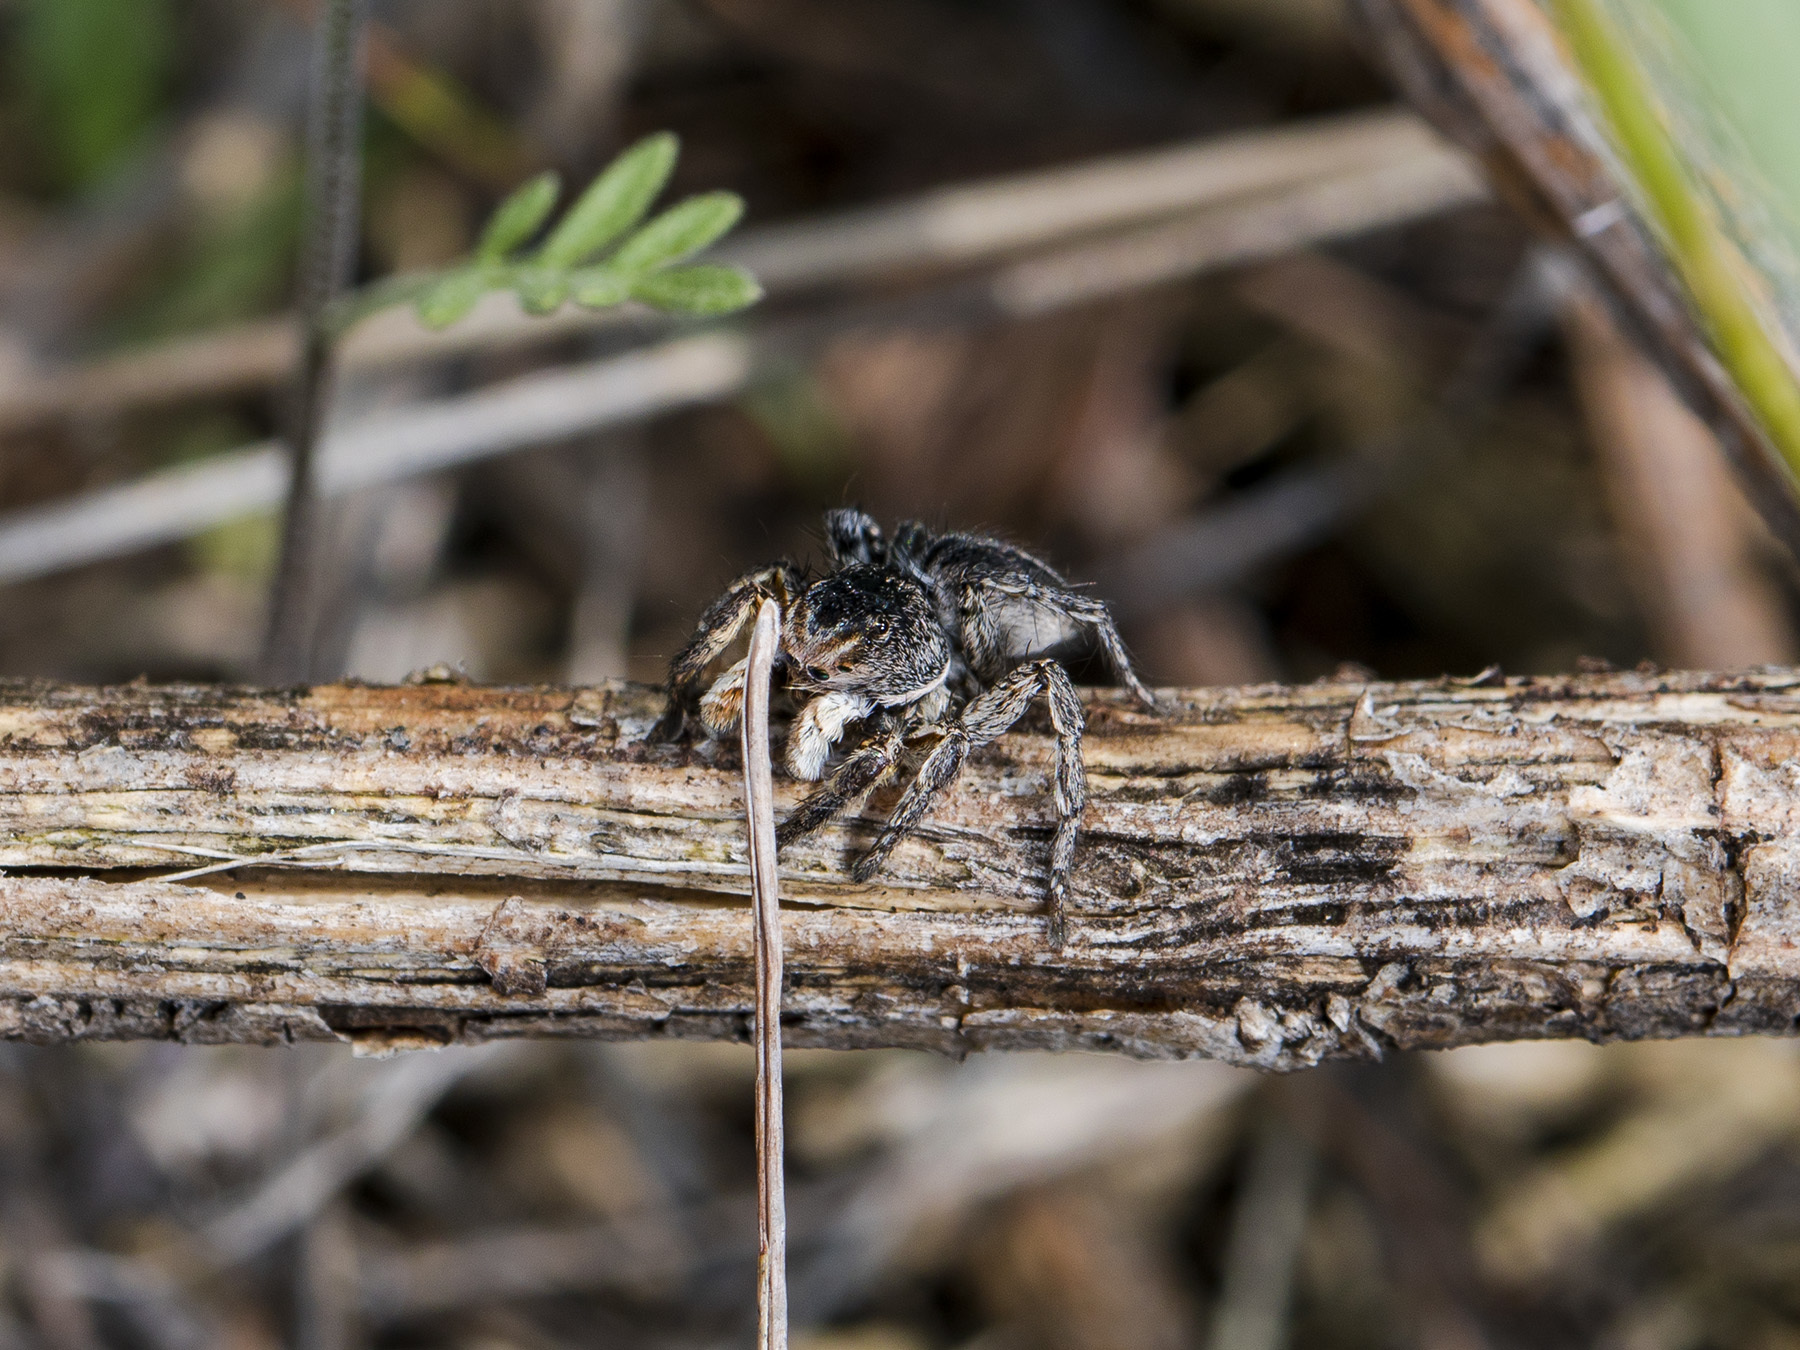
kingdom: Animalia
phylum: Arthropoda
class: Arachnida
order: Araneae
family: Salticidae
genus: Aelurillus
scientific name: Aelurillus v-insignitus
